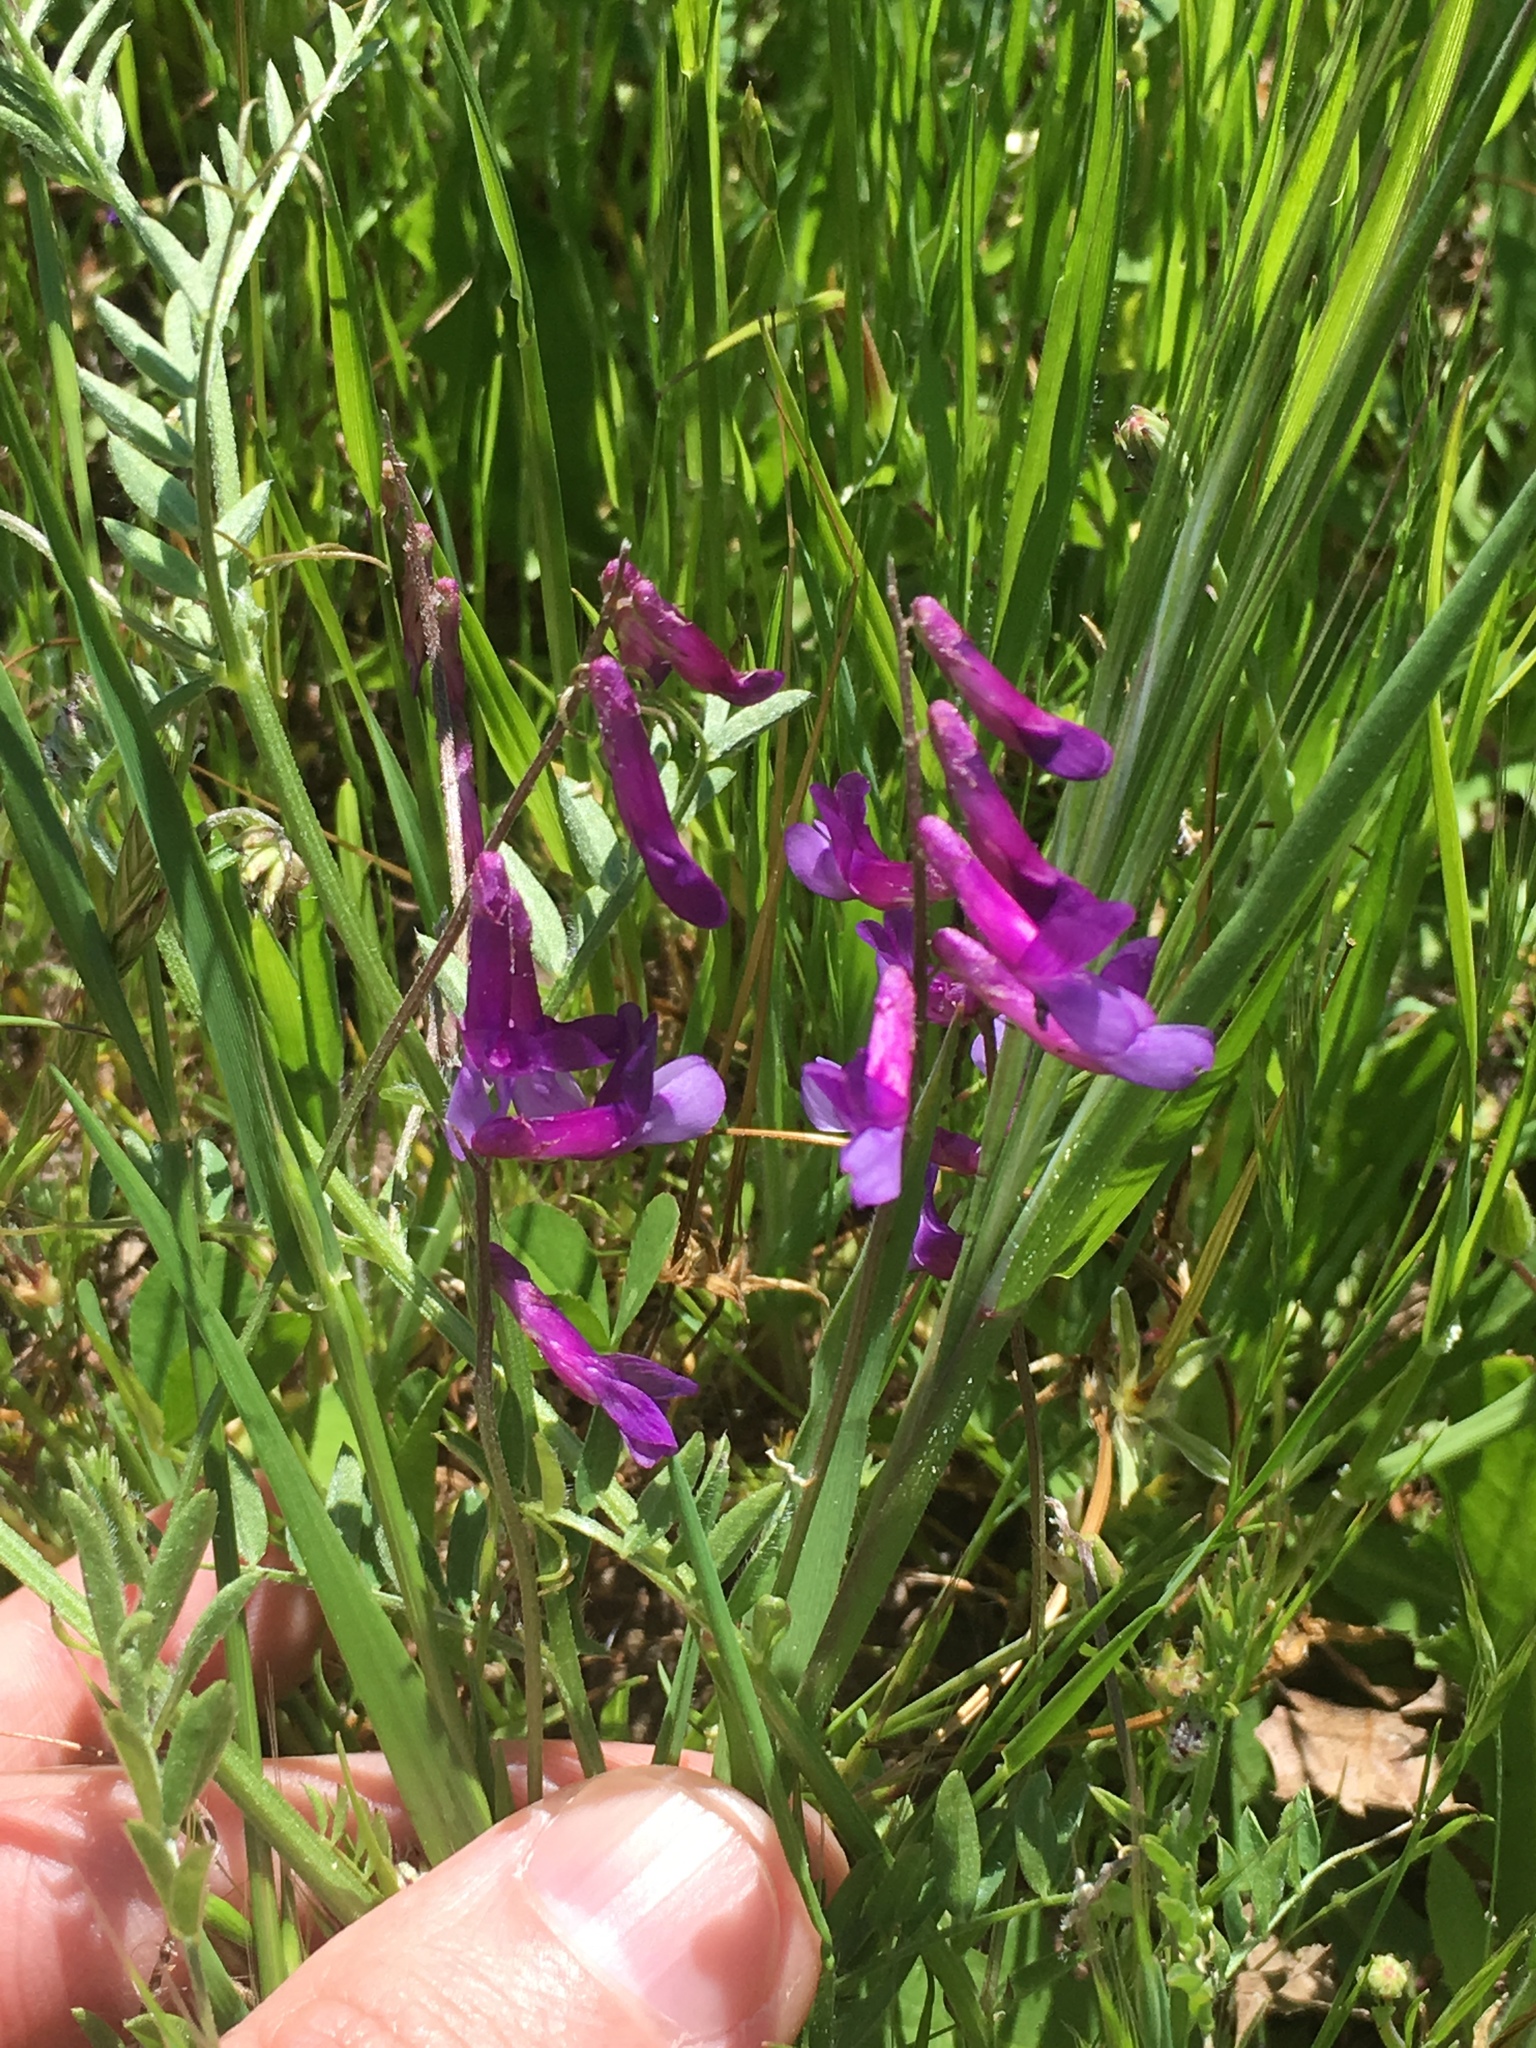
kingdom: Plantae
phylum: Tracheophyta
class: Magnoliopsida
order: Fabales
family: Fabaceae
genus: Vicia
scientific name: Vicia villosa
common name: Fodder vetch
